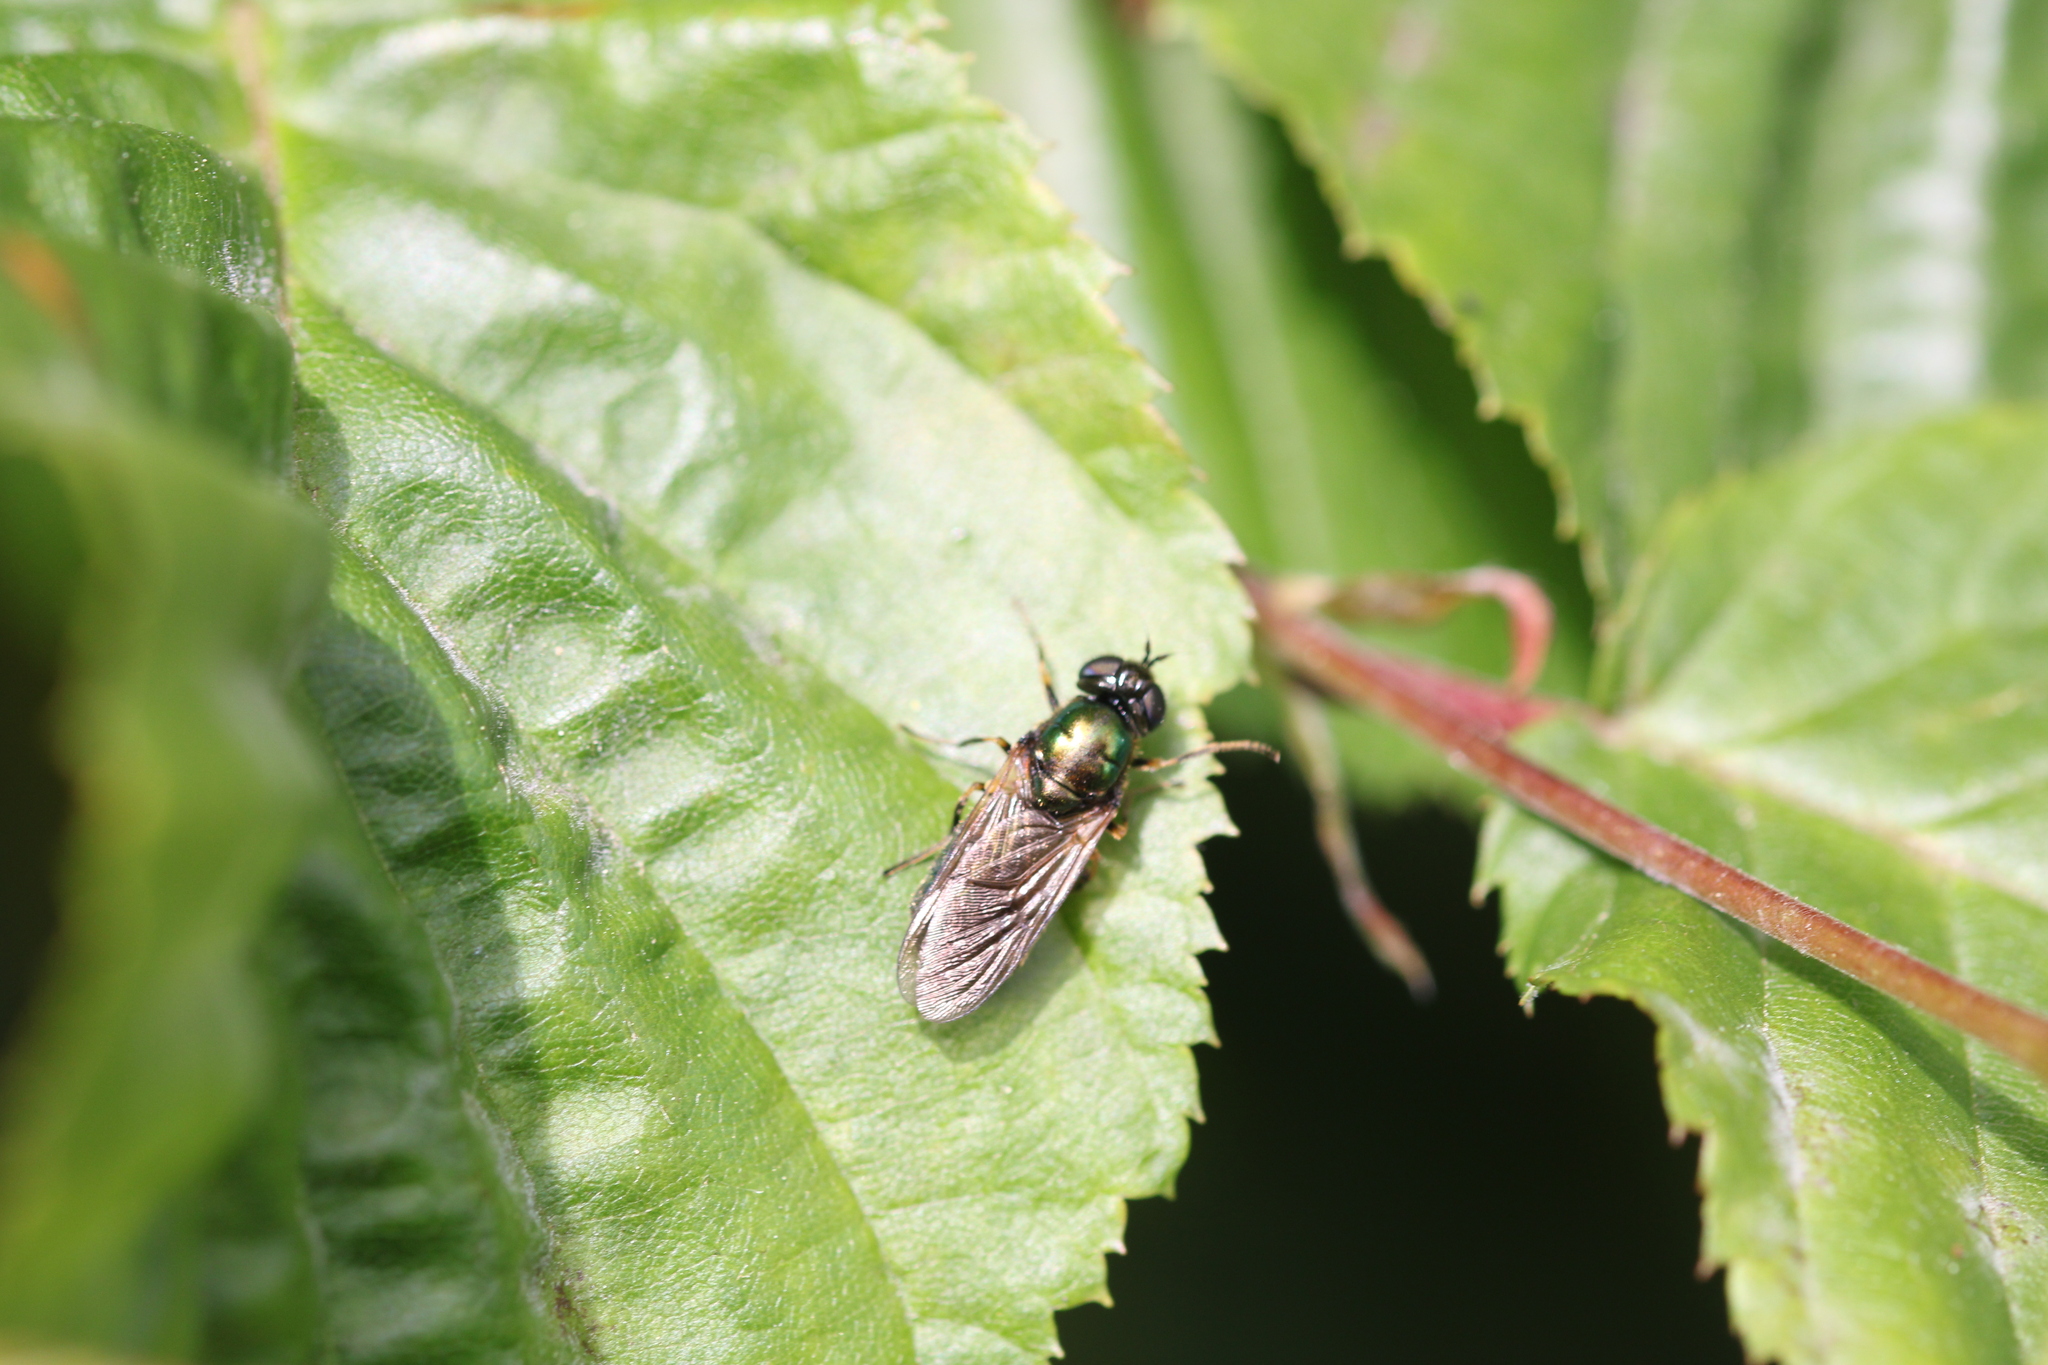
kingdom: Animalia
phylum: Arthropoda
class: Insecta
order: Diptera
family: Stratiomyidae
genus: Chloromyia
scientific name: Chloromyia formosa
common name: Soldier fly
